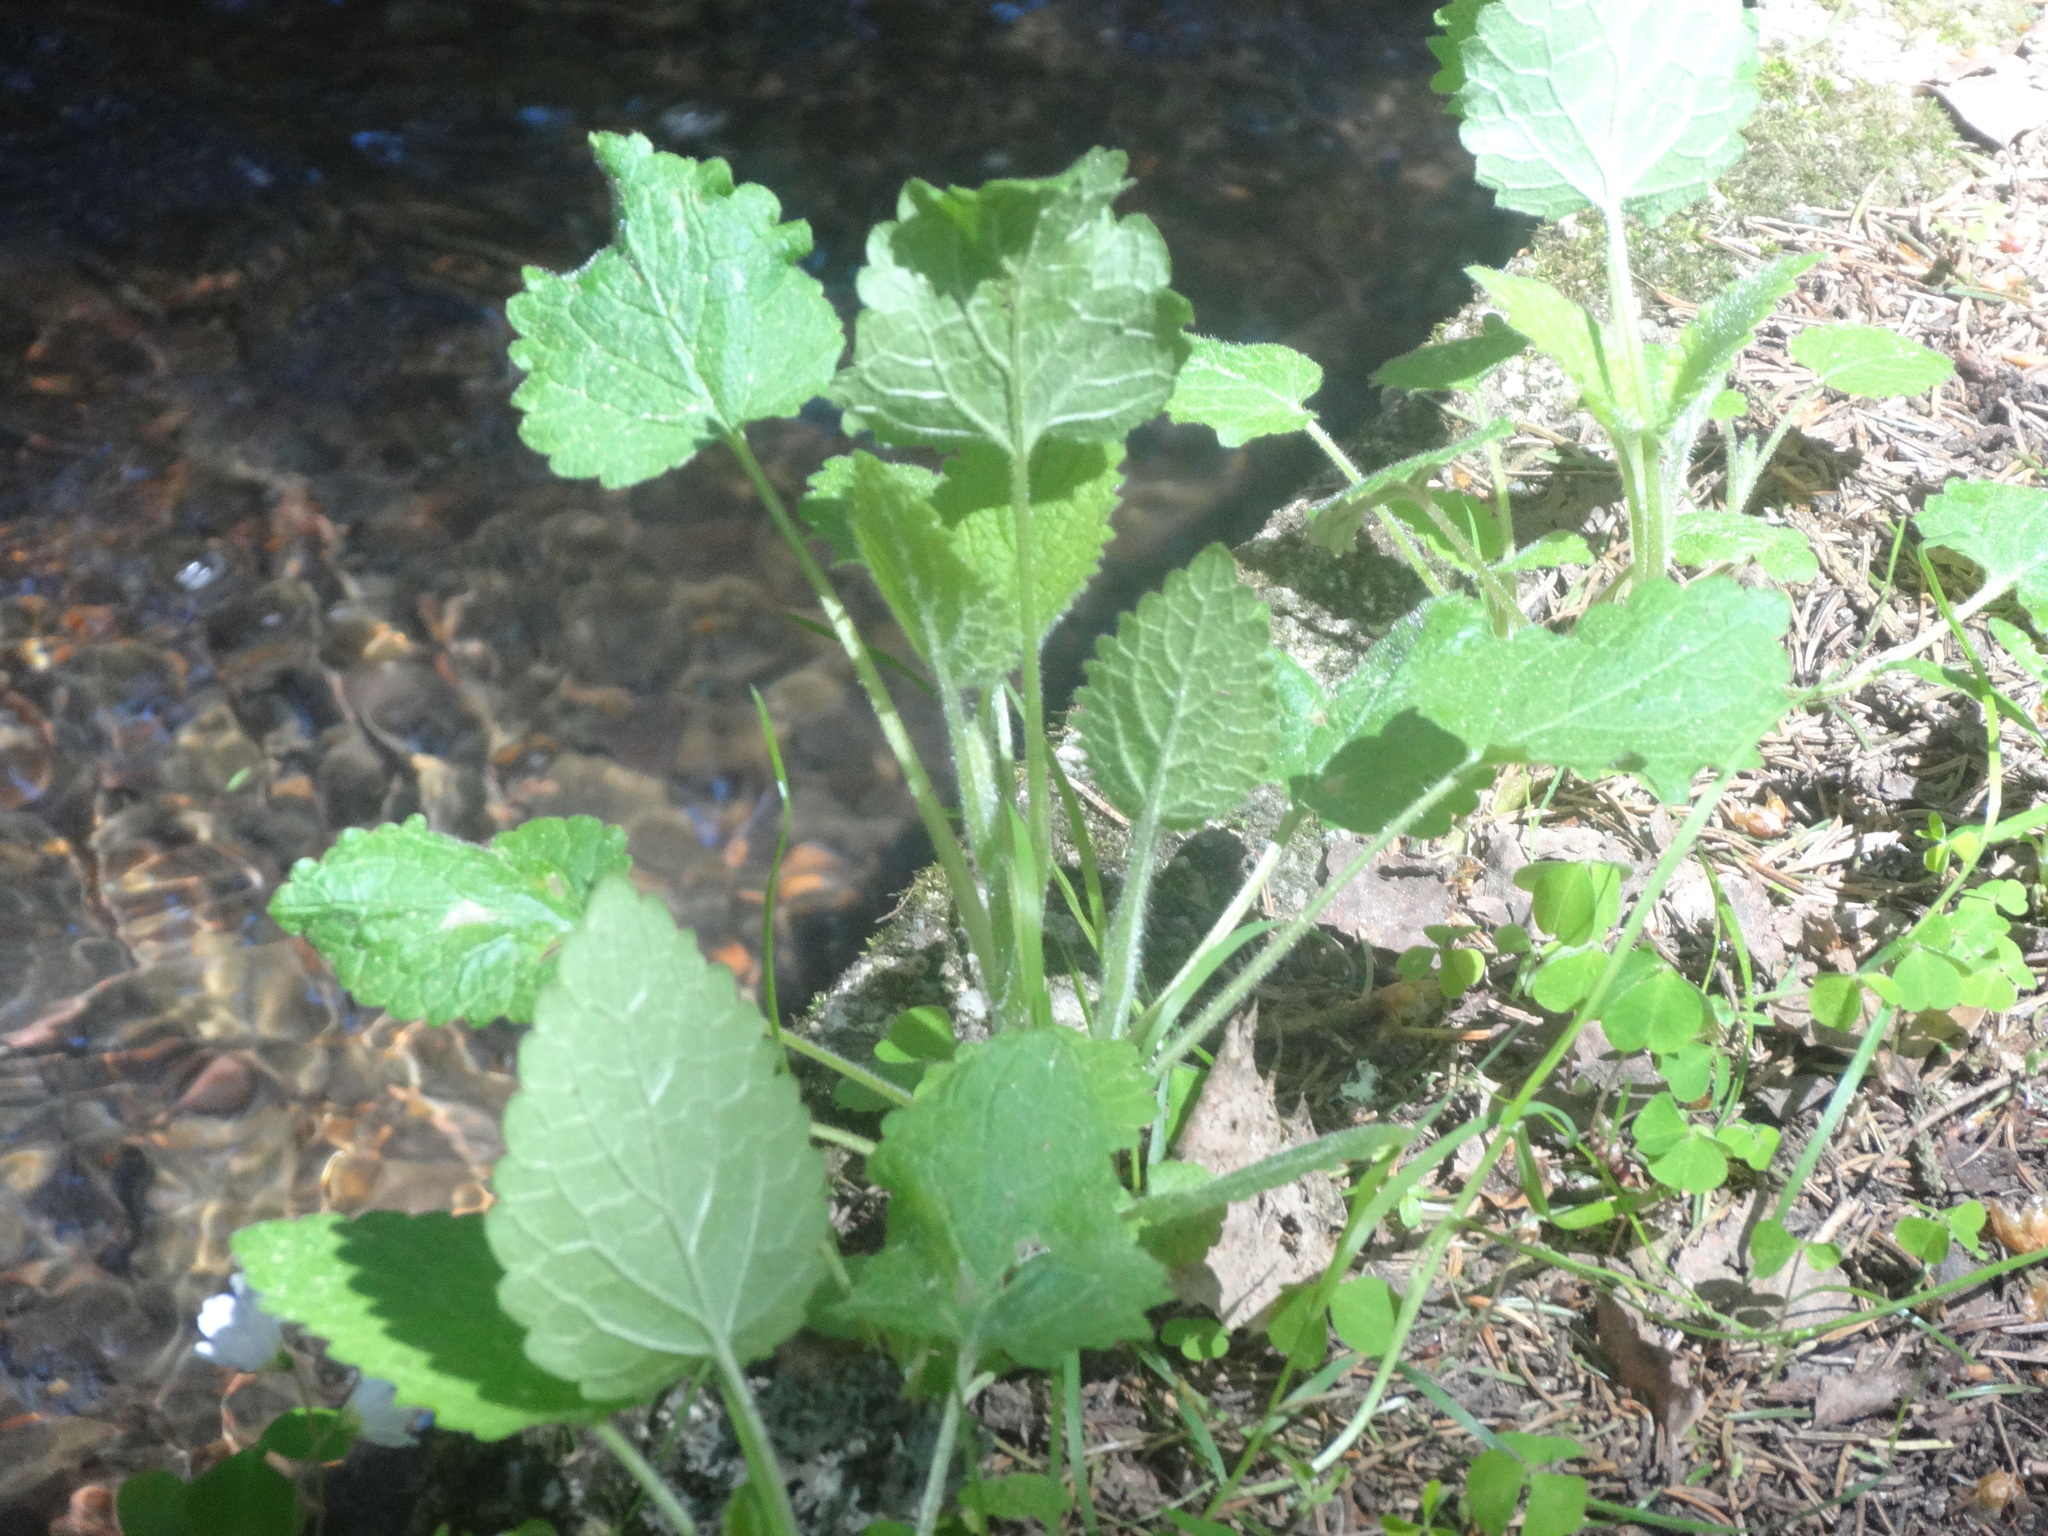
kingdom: Plantae
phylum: Tracheophyta
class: Magnoliopsida
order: Lamiales
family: Lamiaceae
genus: Stachys
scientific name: Stachys sylvatica
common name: Hedge woundwort
